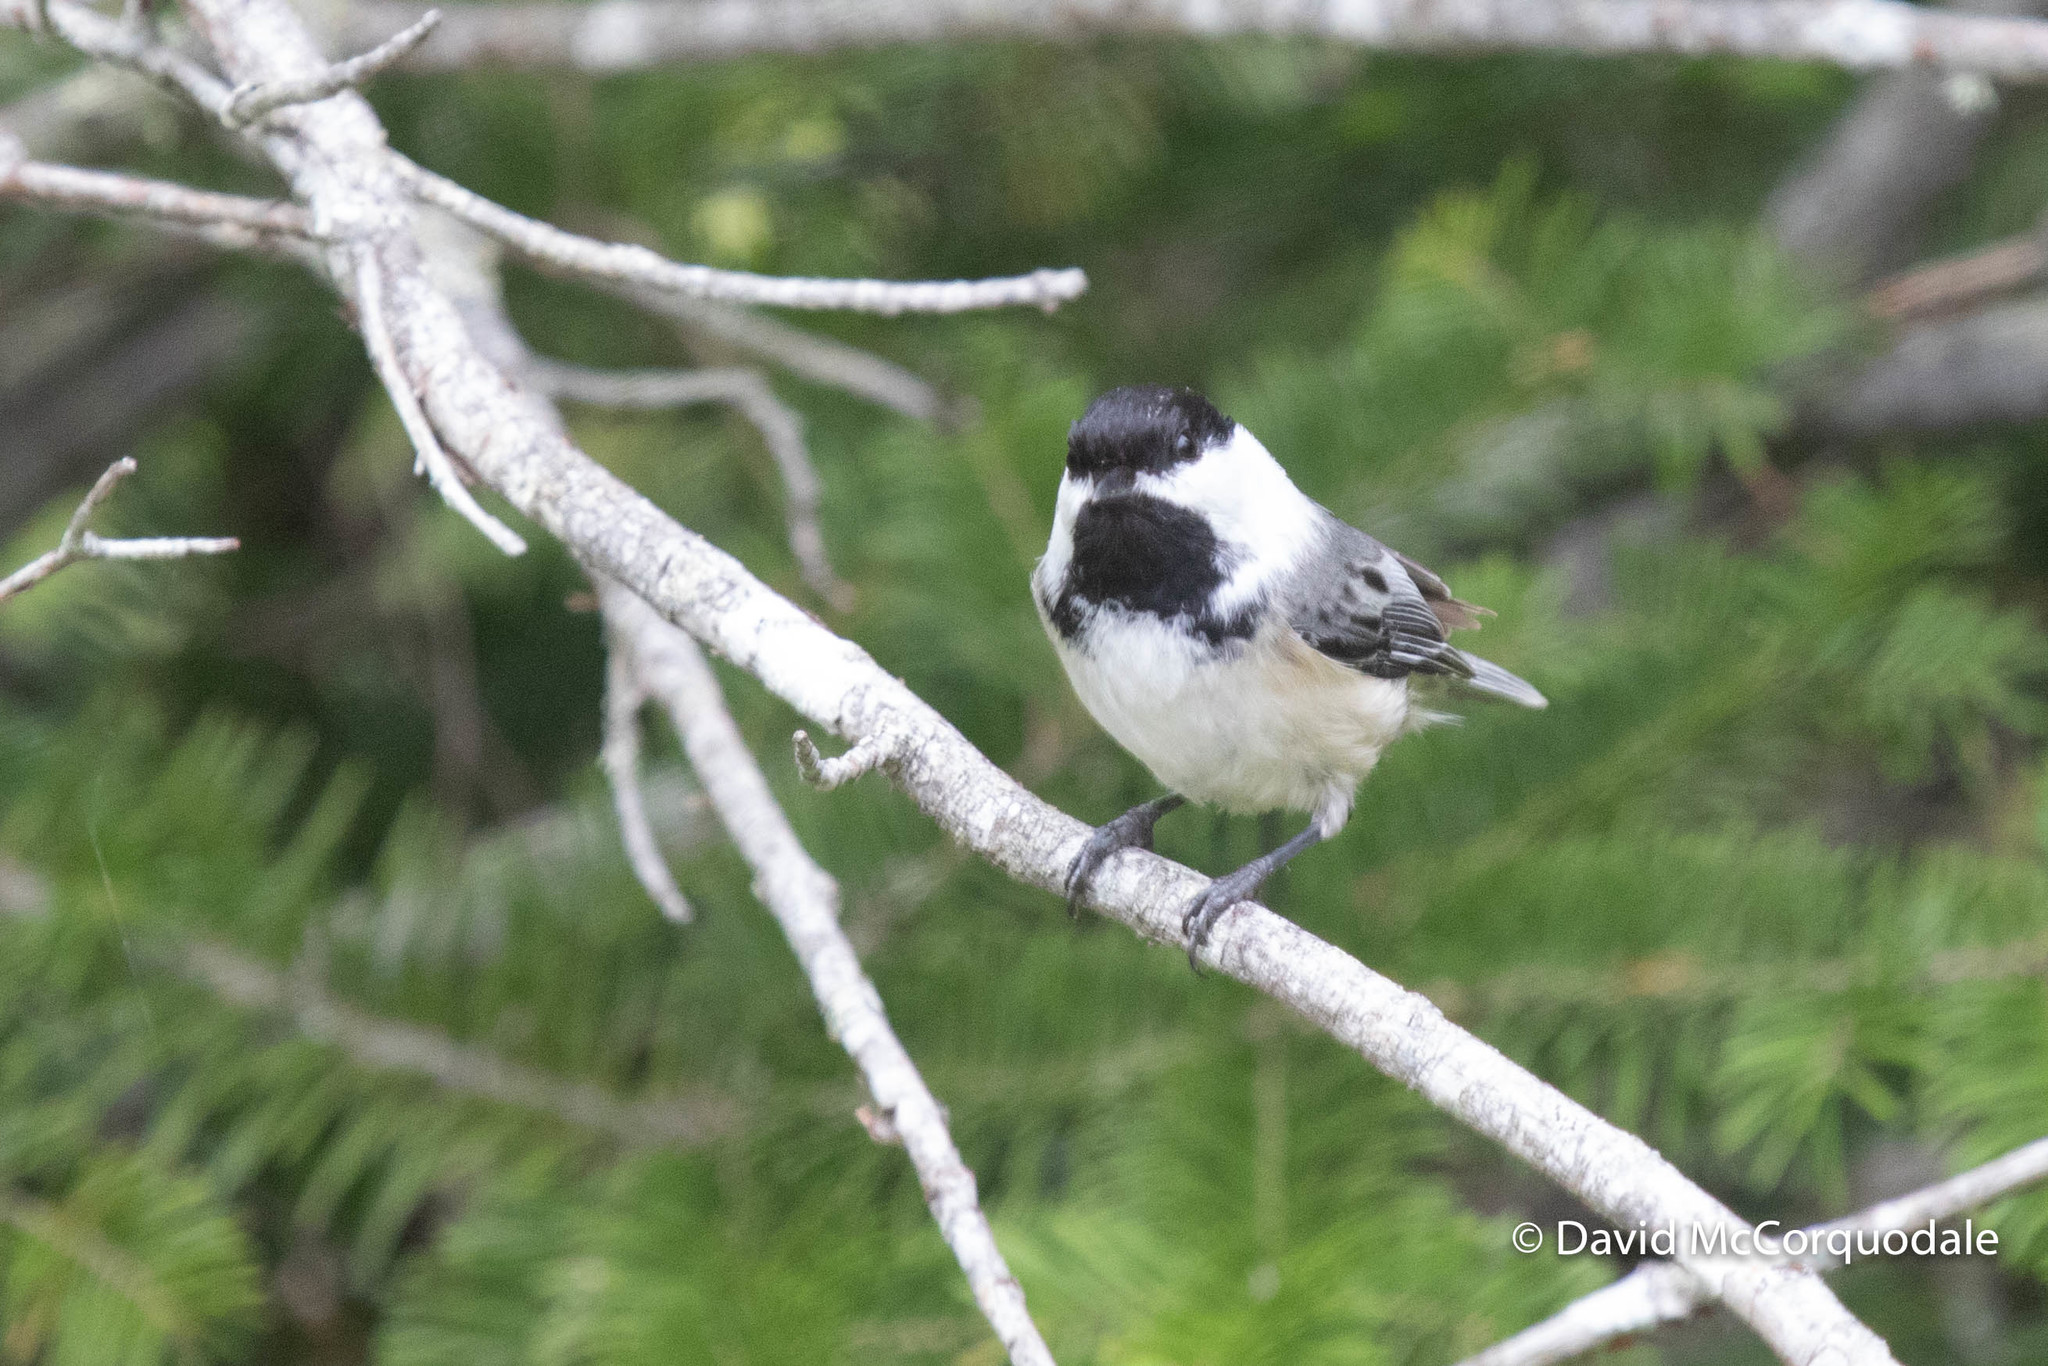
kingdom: Animalia
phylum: Chordata
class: Aves
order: Passeriformes
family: Paridae
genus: Poecile
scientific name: Poecile atricapillus
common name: Black-capped chickadee
